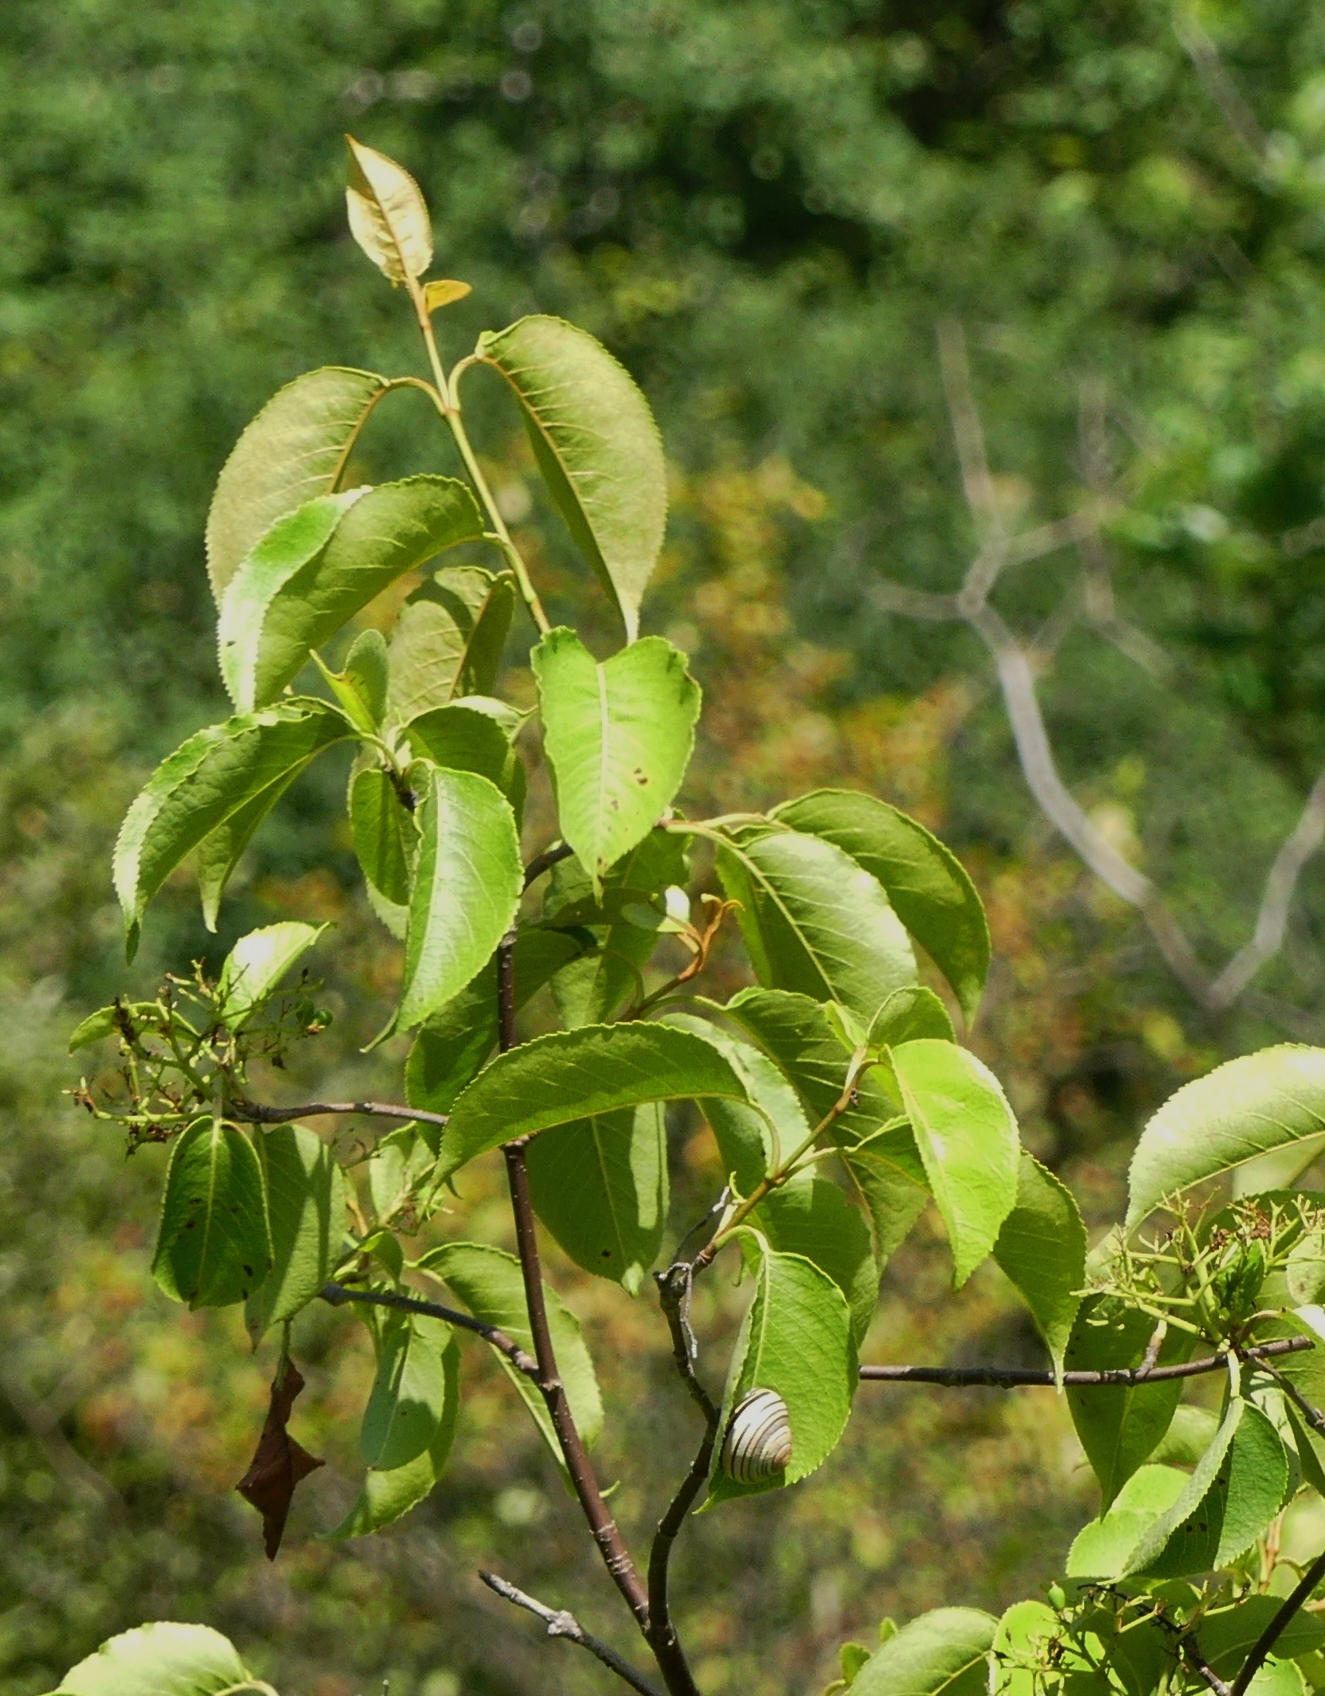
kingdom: Plantae
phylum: Tracheophyta
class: Magnoliopsida
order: Dipsacales
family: Viburnaceae
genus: Viburnum
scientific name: Viburnum lentago
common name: Black haw
